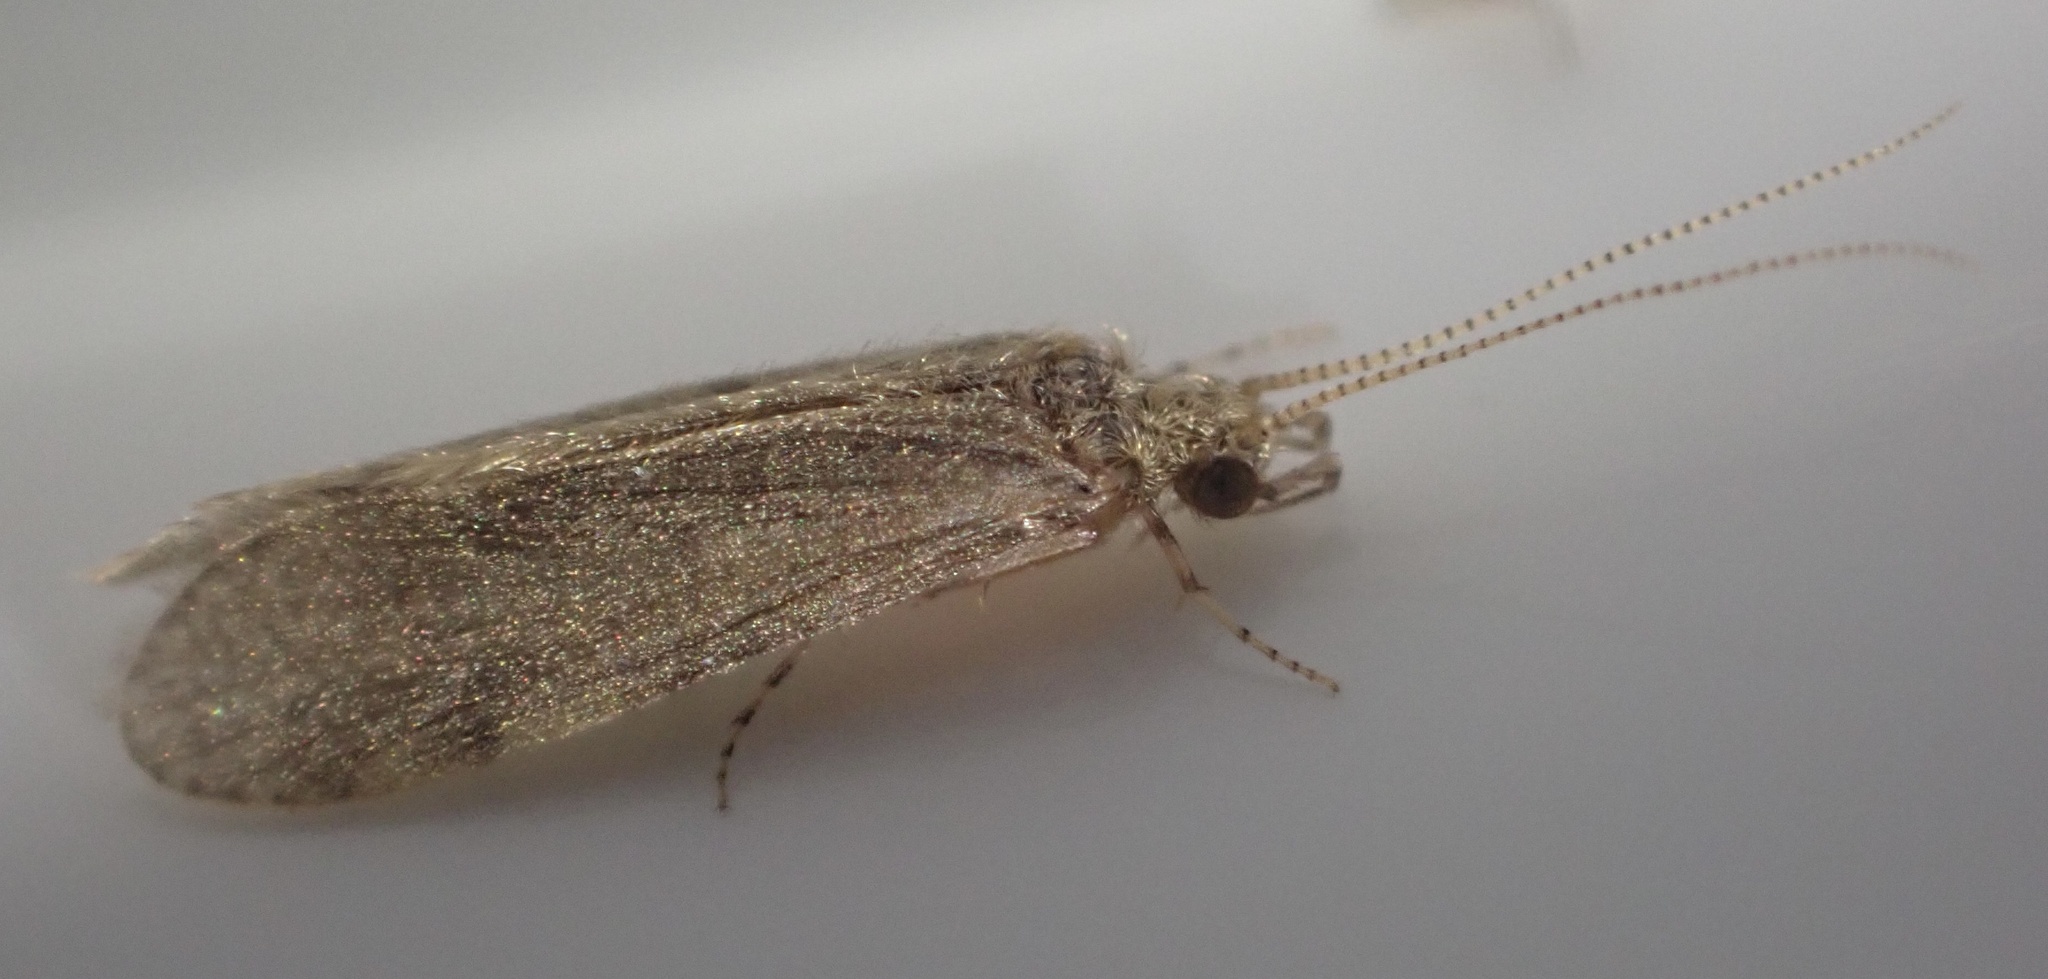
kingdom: Animalia
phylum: Arthropoda
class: Insecta
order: Trichoptera
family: Ecnomidae
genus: Ecnomus
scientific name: Ecnomus tenellus
